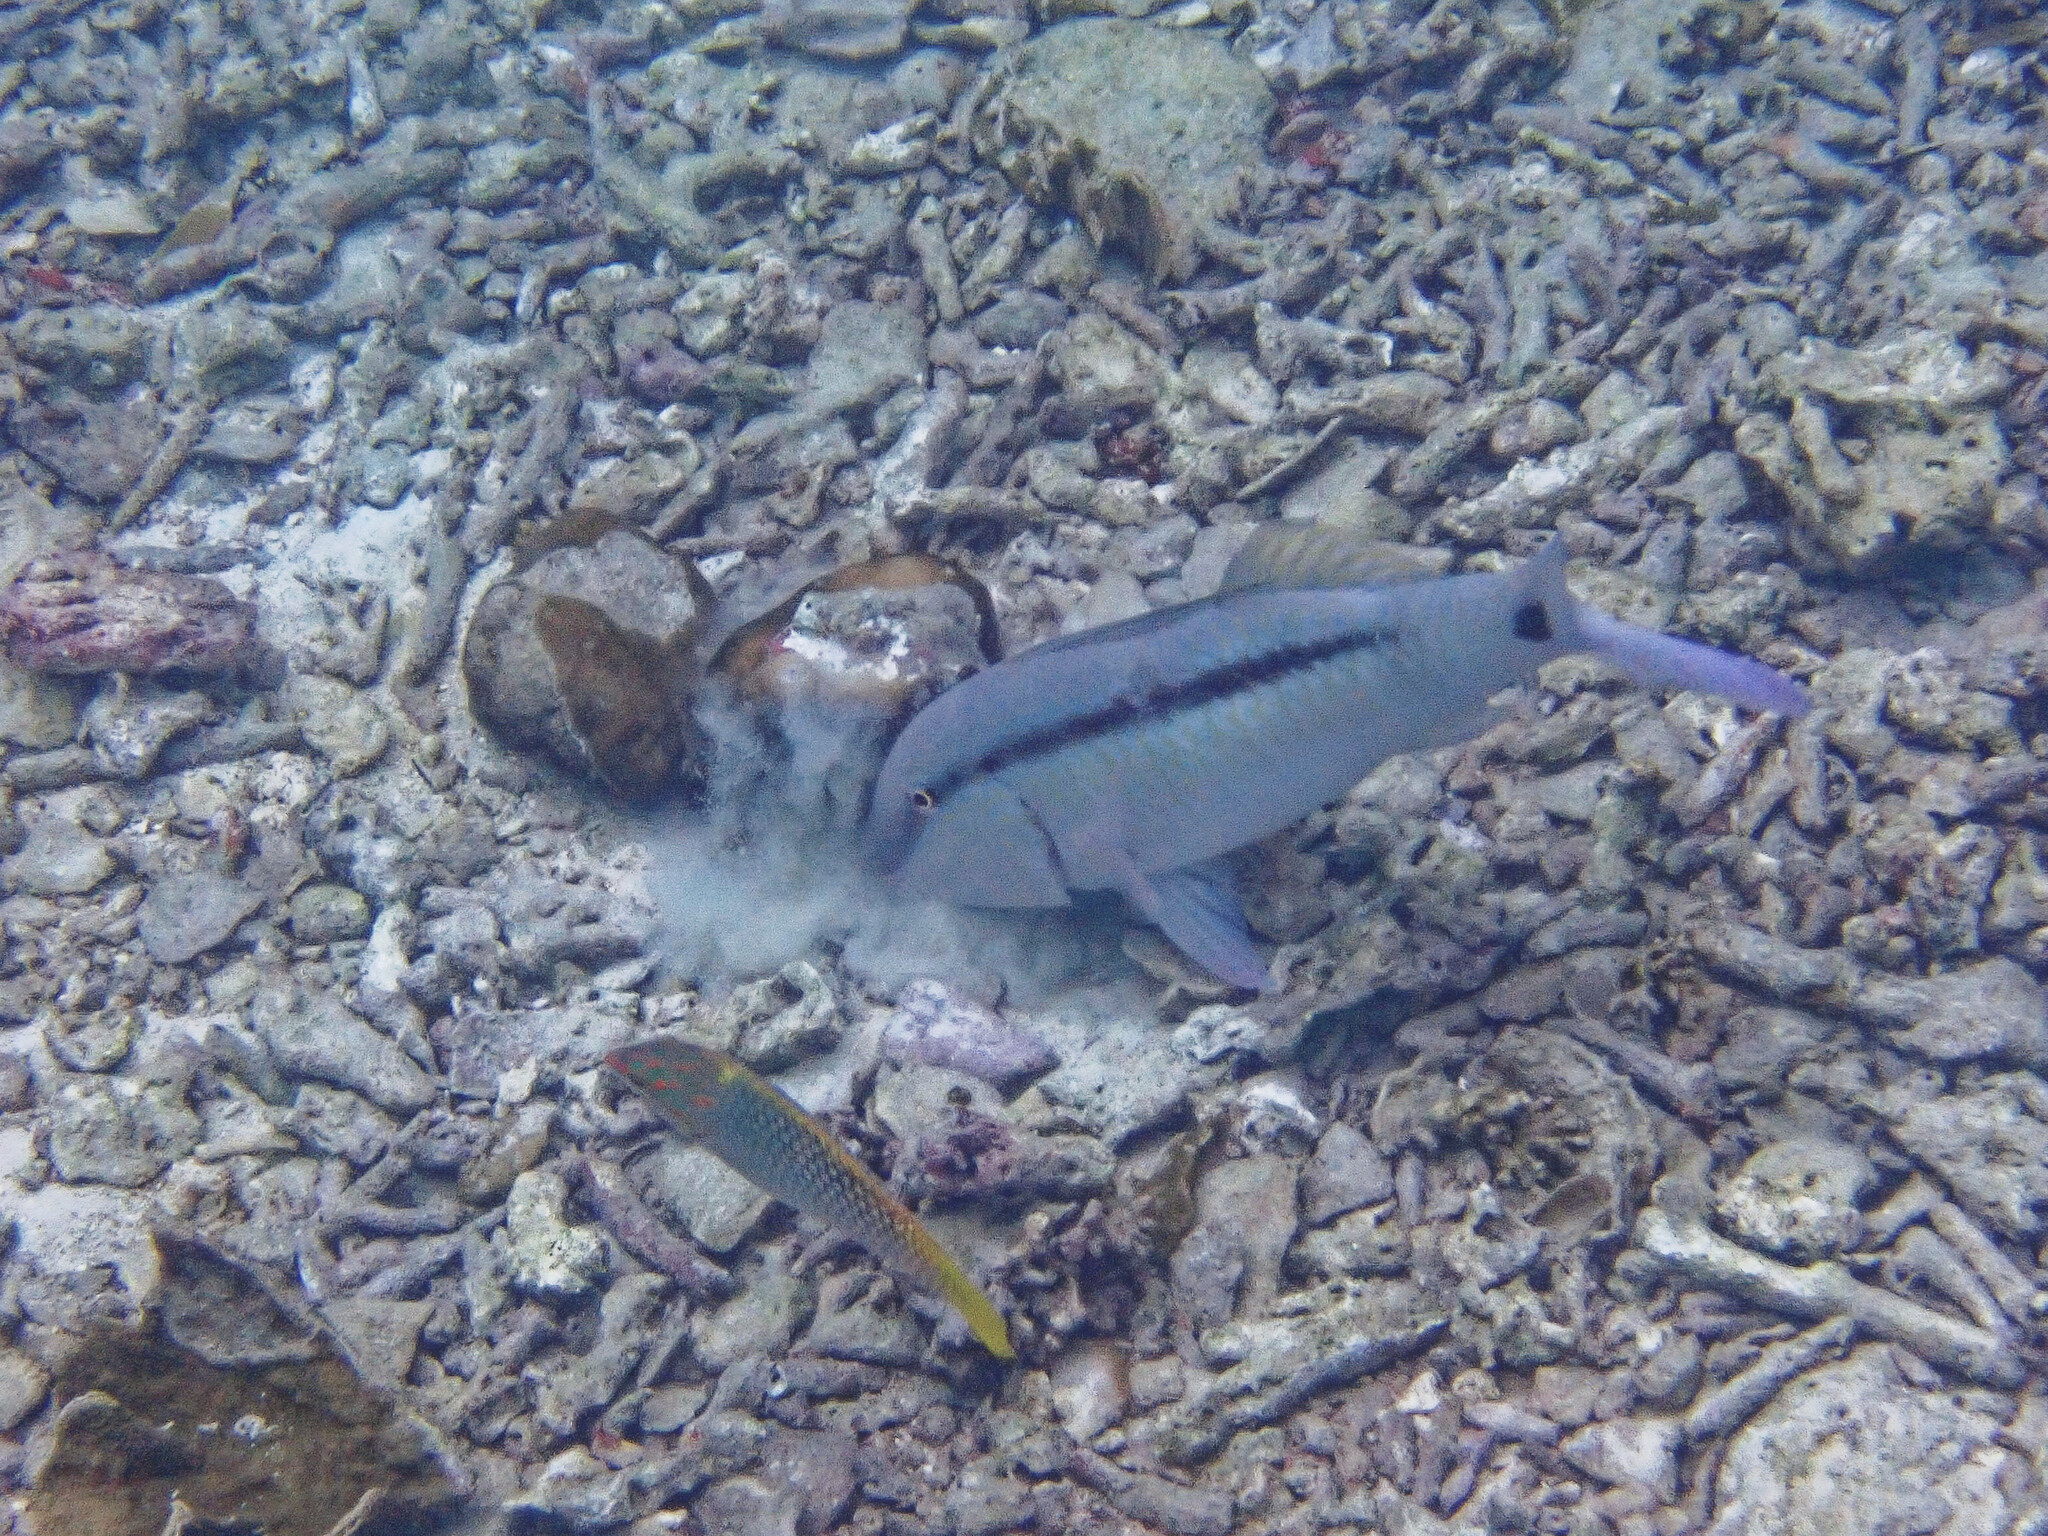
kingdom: Animalia
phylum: Chordata
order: Perciformes
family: Mullidae
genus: Parupeneus
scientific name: Parupeneus barberinus
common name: Dash-and-dot goatfish
